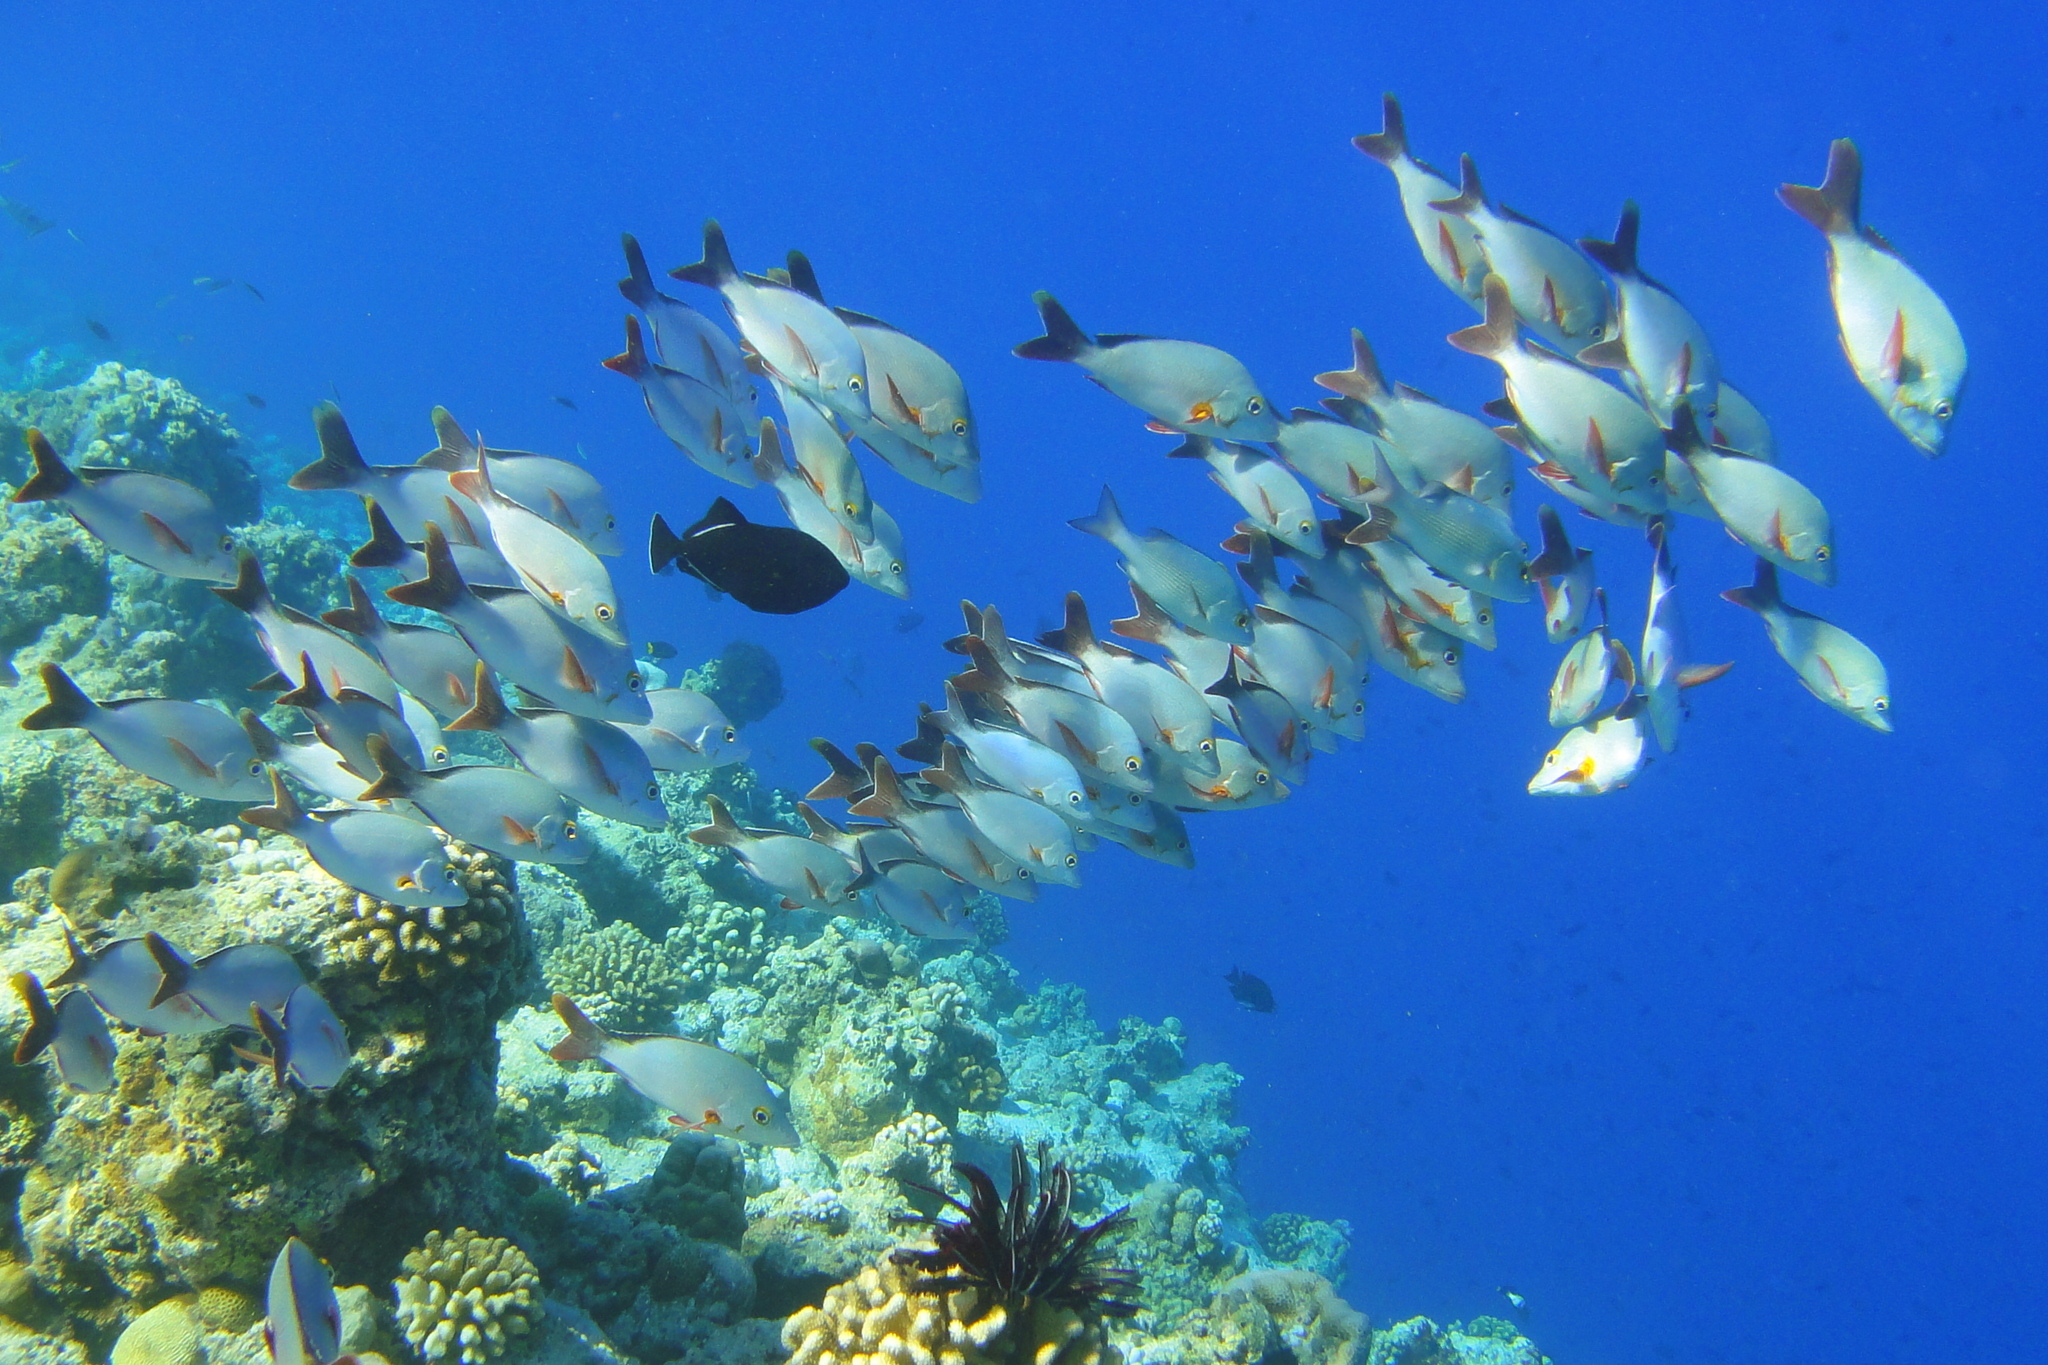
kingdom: Animalia
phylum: Chordata
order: Perciformes
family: Lutjanidae
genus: Lutjanus
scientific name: Lutjanus gibbus
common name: Humpback snapper
